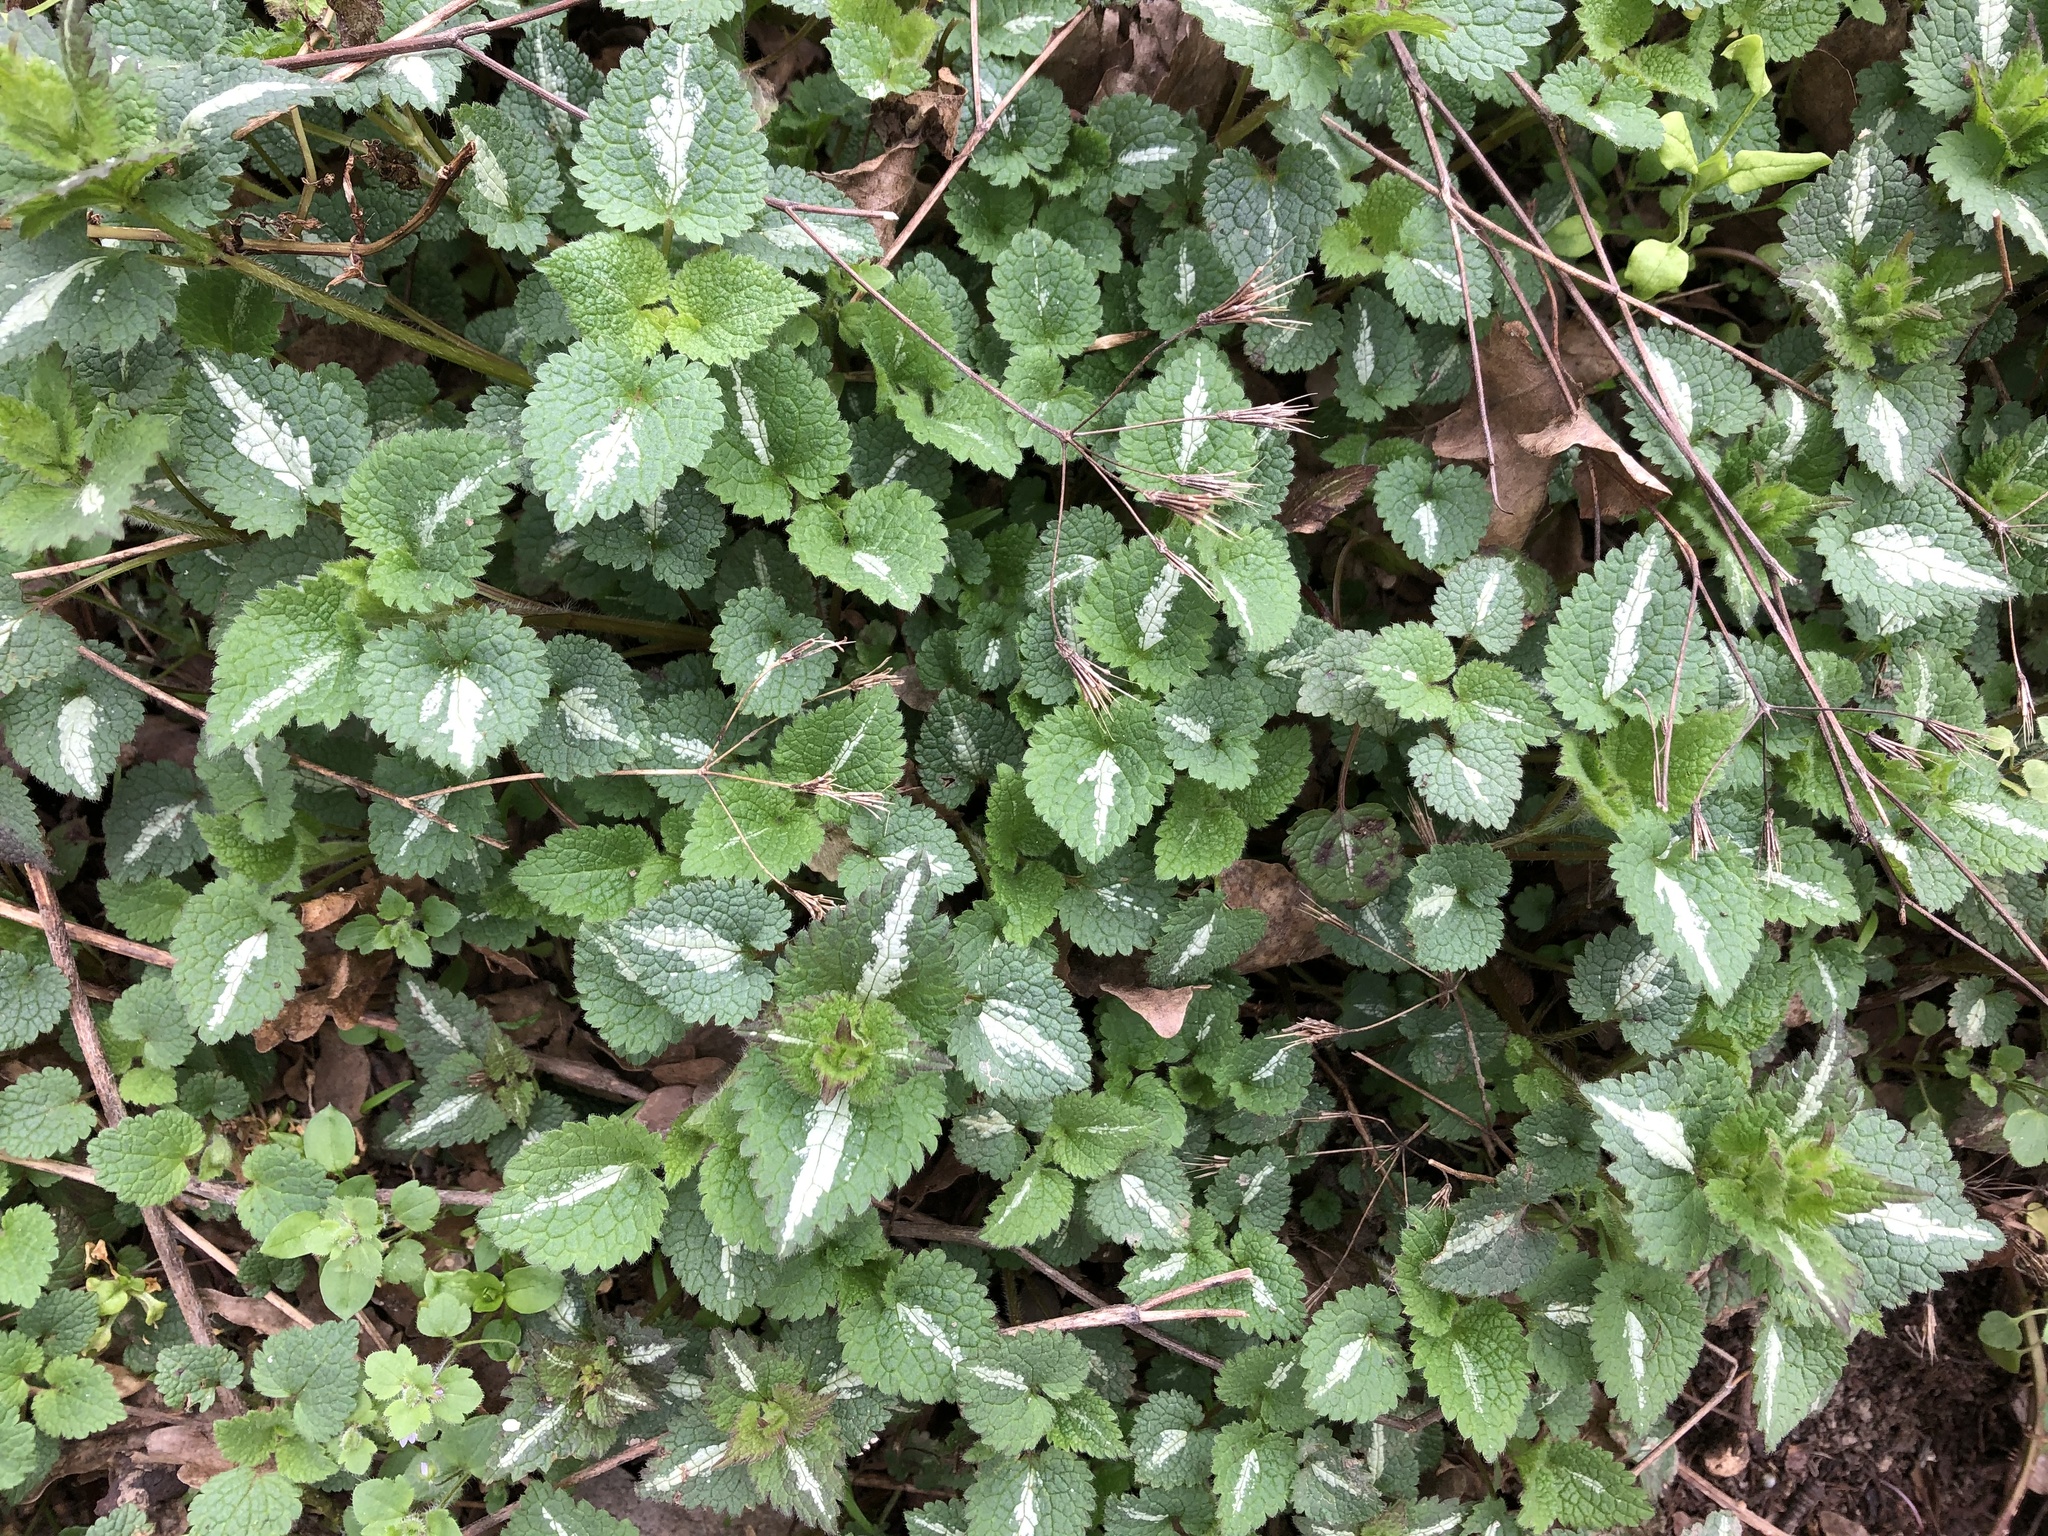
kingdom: Plantae
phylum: Tracheophyta
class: Magnoliopsida
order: Lamiales
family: Lamiaceae
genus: Lamium
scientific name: Lamium maculatum
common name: Spotted dead-nettle
